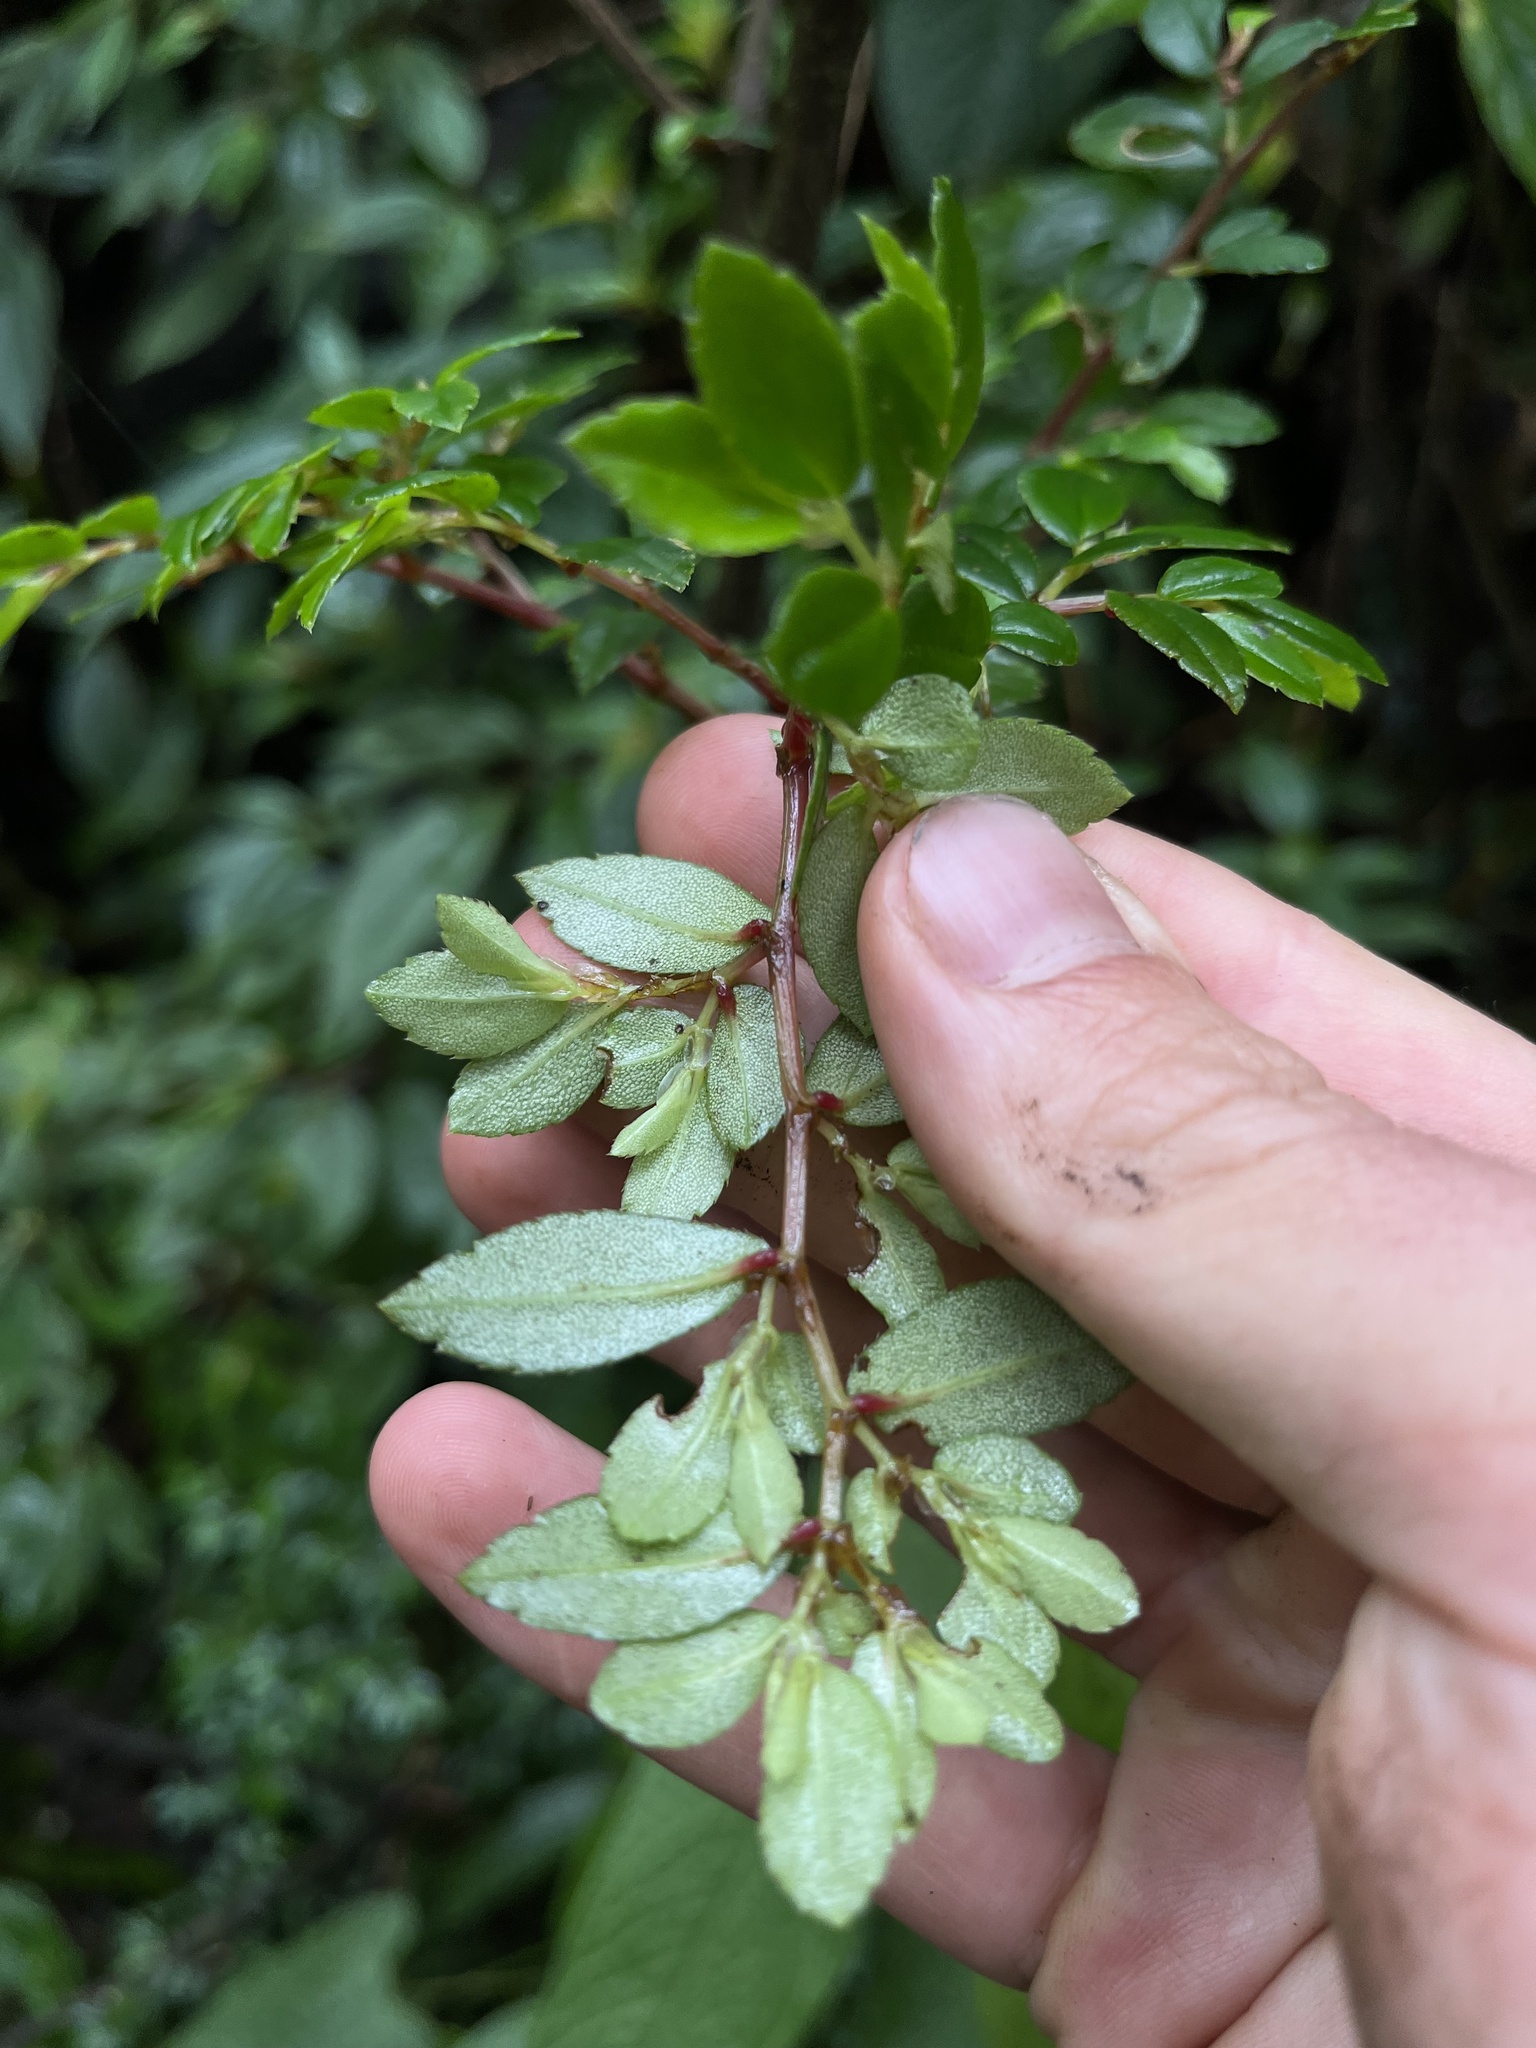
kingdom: Plantae
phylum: Tracheophyta
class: Magnoliopsida
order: Cucurbitales
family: Begoniaceae
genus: Begonia
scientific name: Begonia foliosa
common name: Fern begonia
